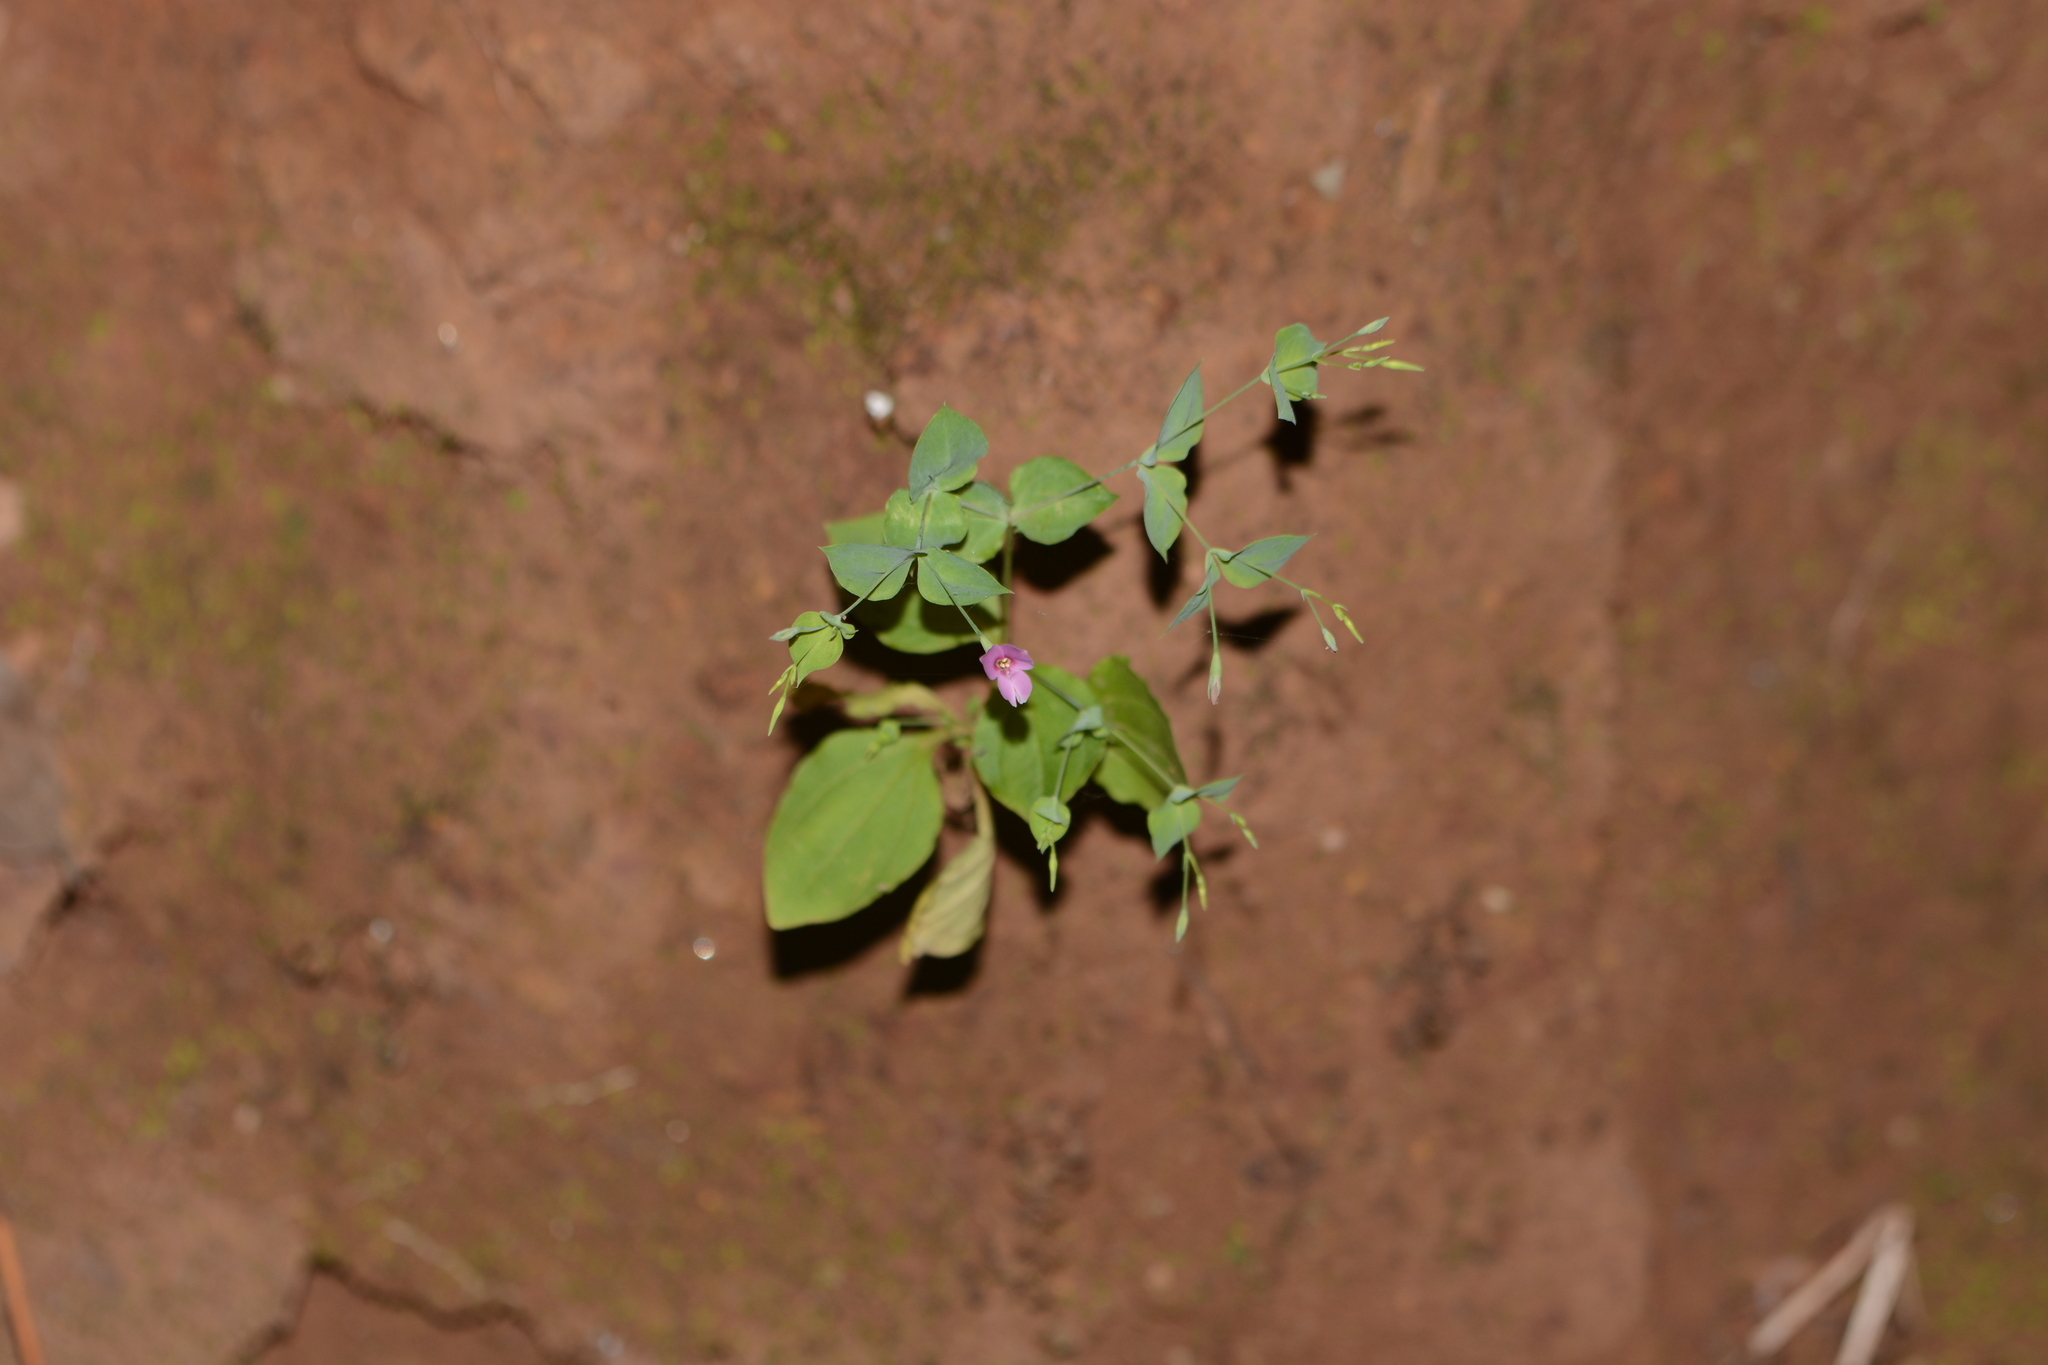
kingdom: Plantae
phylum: Tracheophyta
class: Magnoliopsida
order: Gentianales
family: Gentianaceae
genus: Canscora
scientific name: Canscora diffusa
